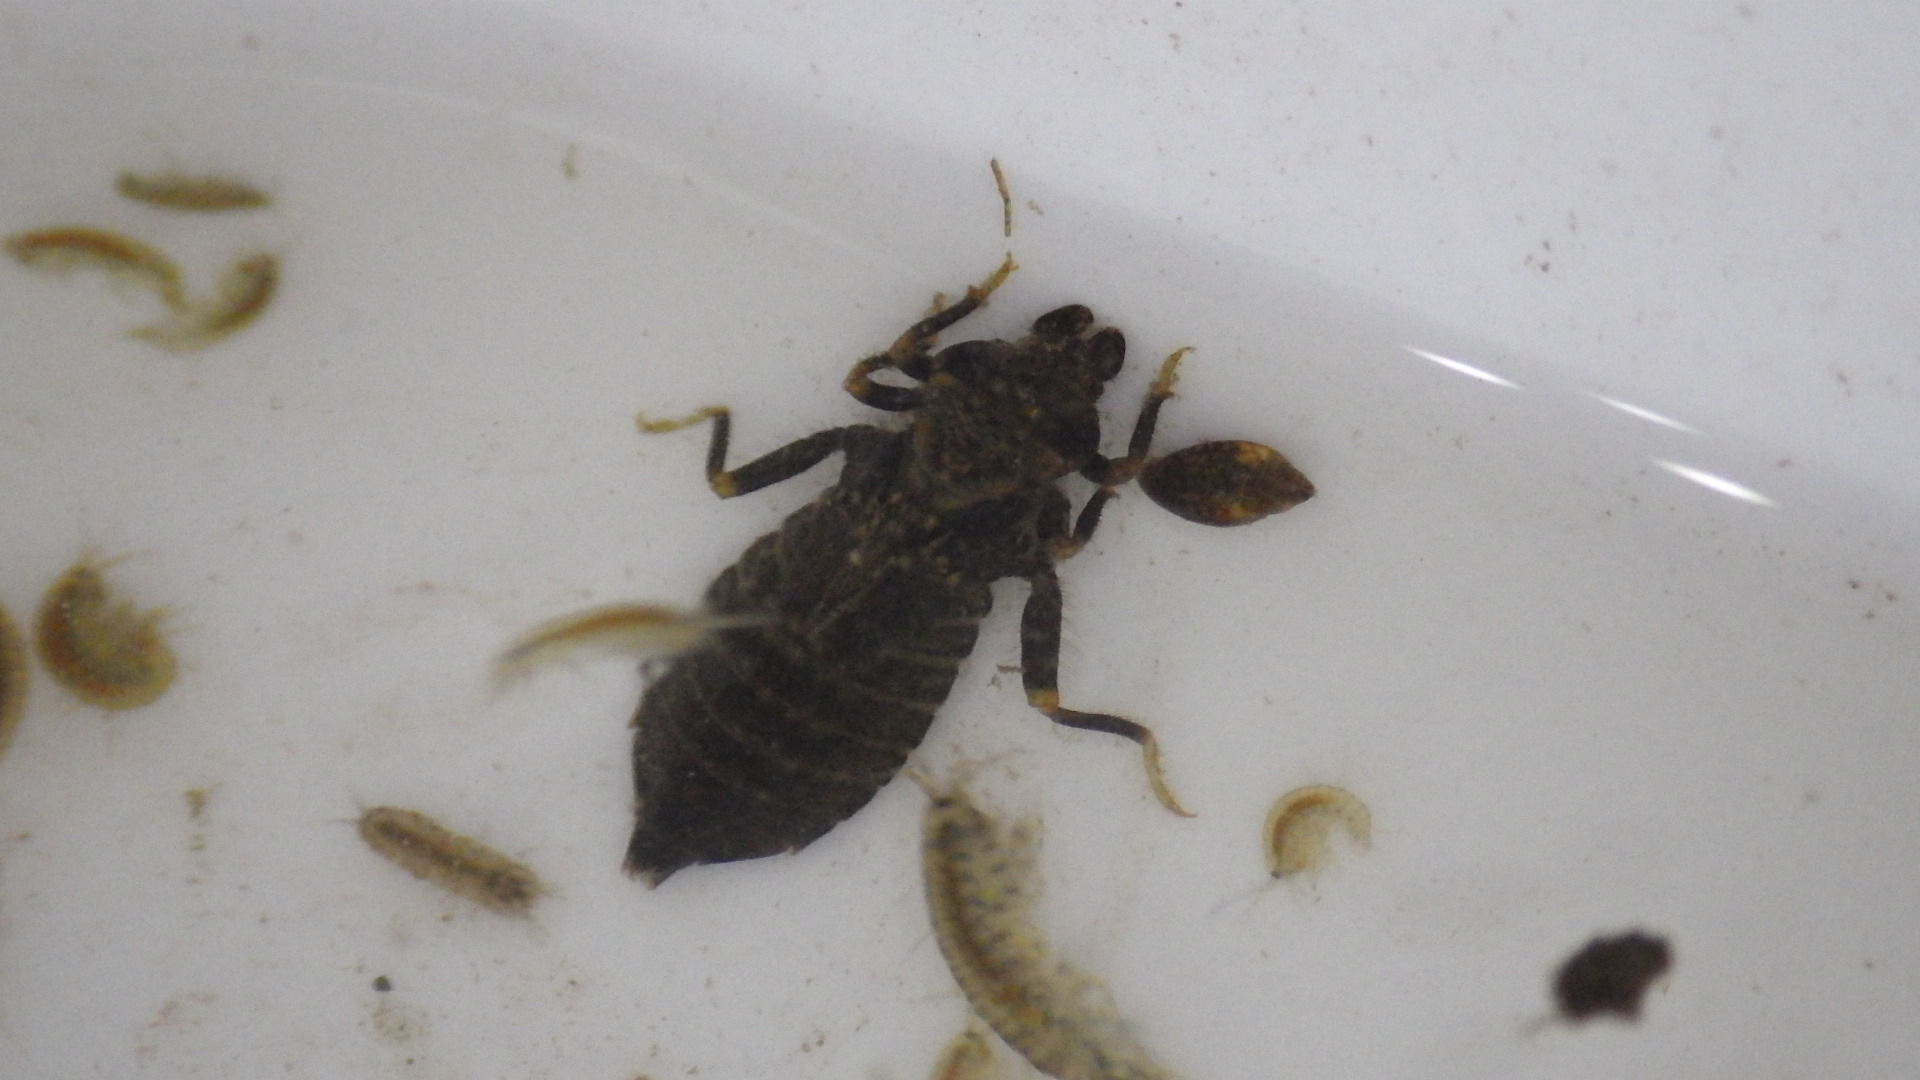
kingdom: Animalia
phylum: Arthropoda
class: Insecta
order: Odonata
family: Gomphidae
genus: Stylogomphus
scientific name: Stylogomphus albistylus
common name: Eastern least clubtail
